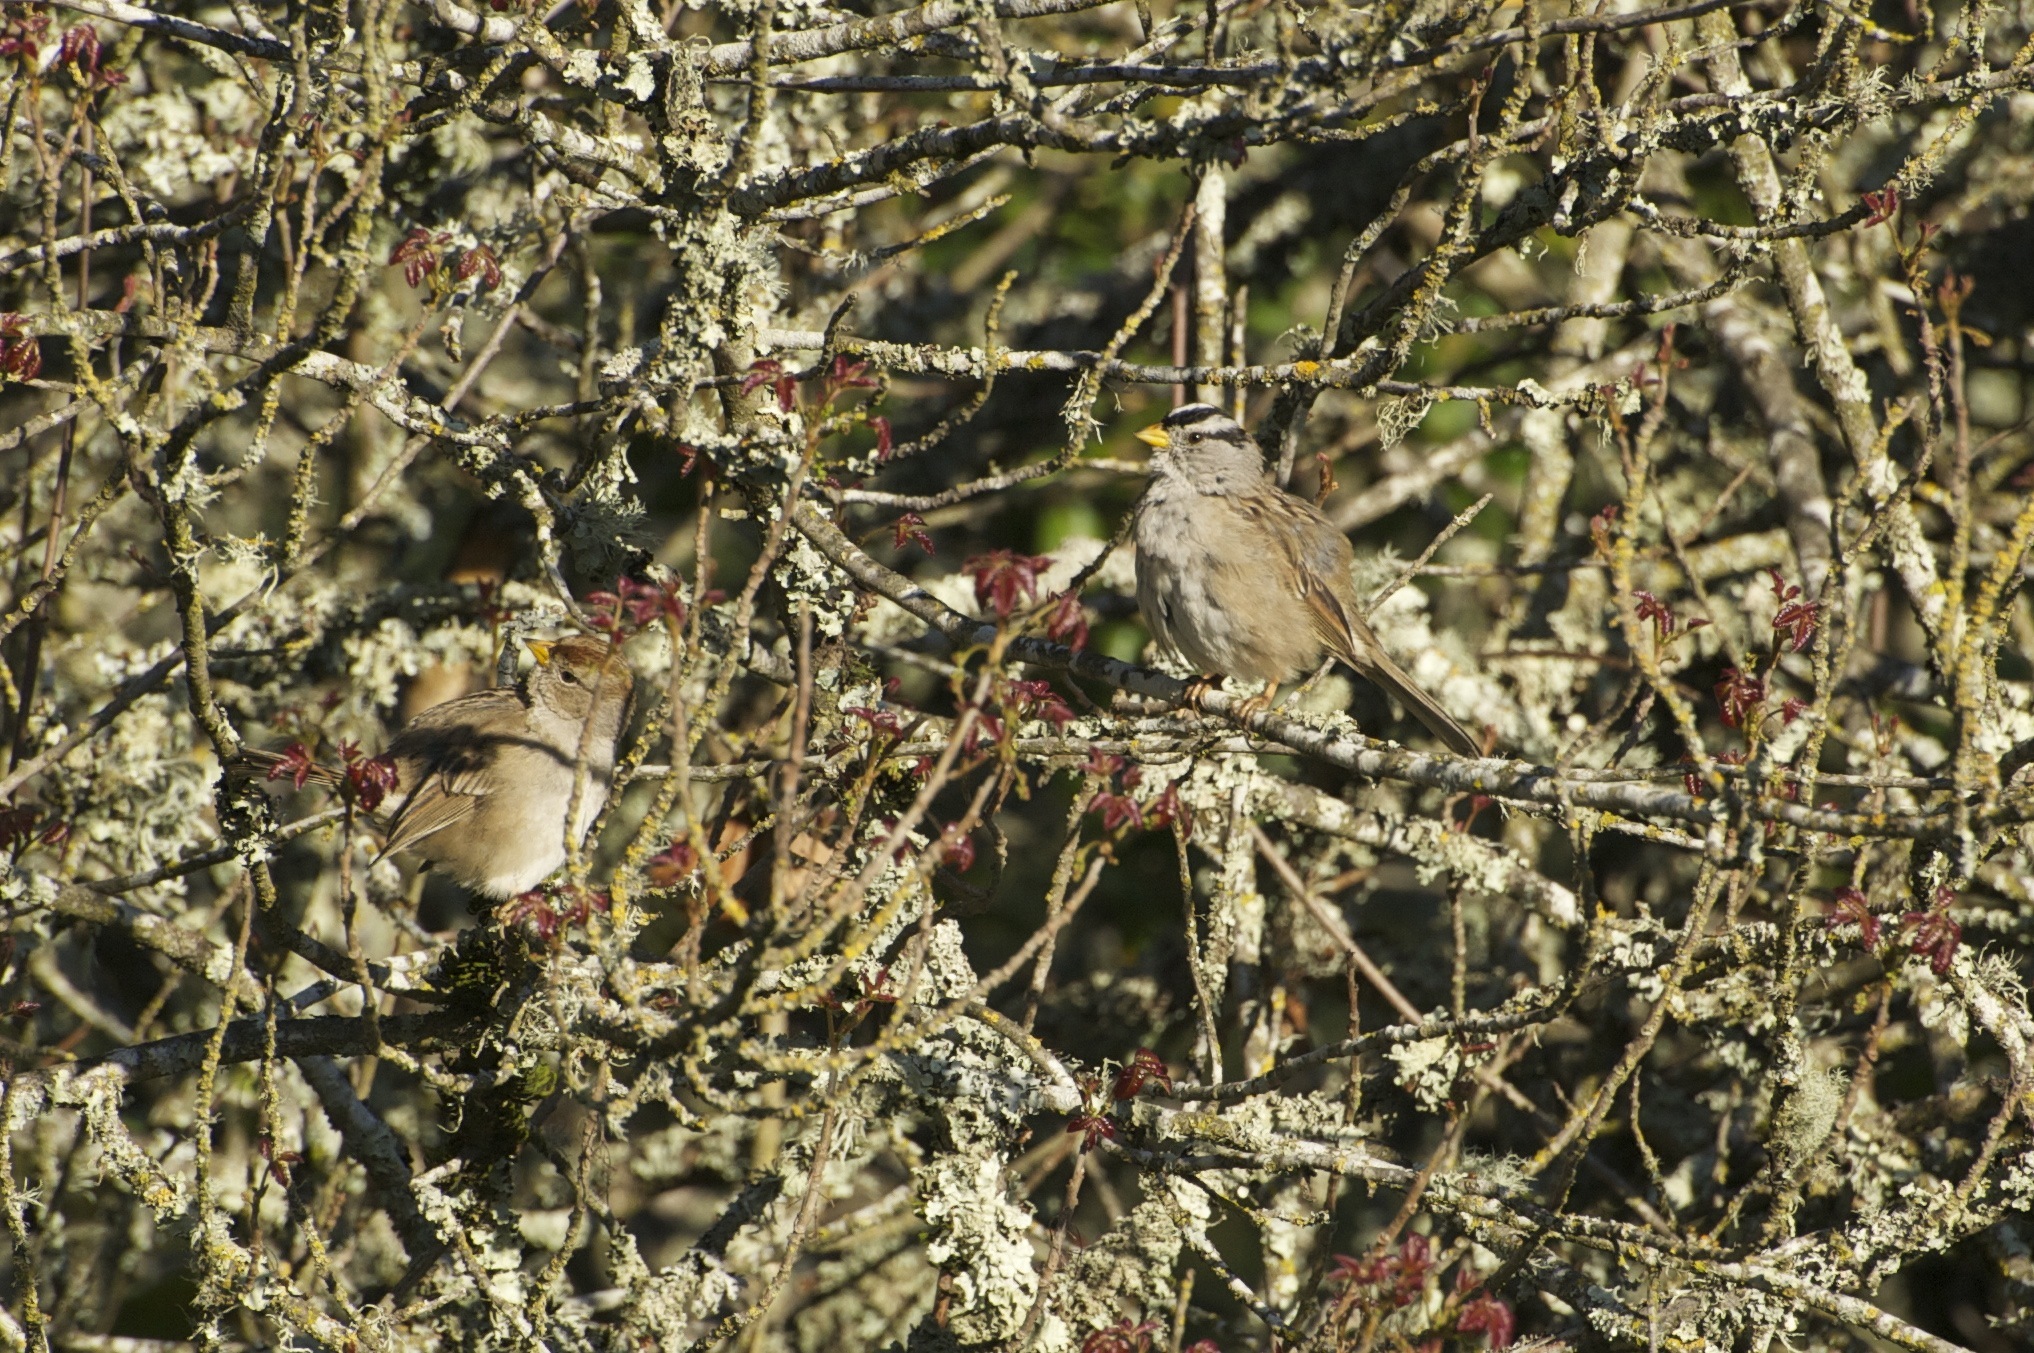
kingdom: Animalia
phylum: Chordata
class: Aves
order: Passeriformes
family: Passerellidae
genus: Zonotrichia
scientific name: Zonotrichia leucophrys
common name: White-crowned sparrow
